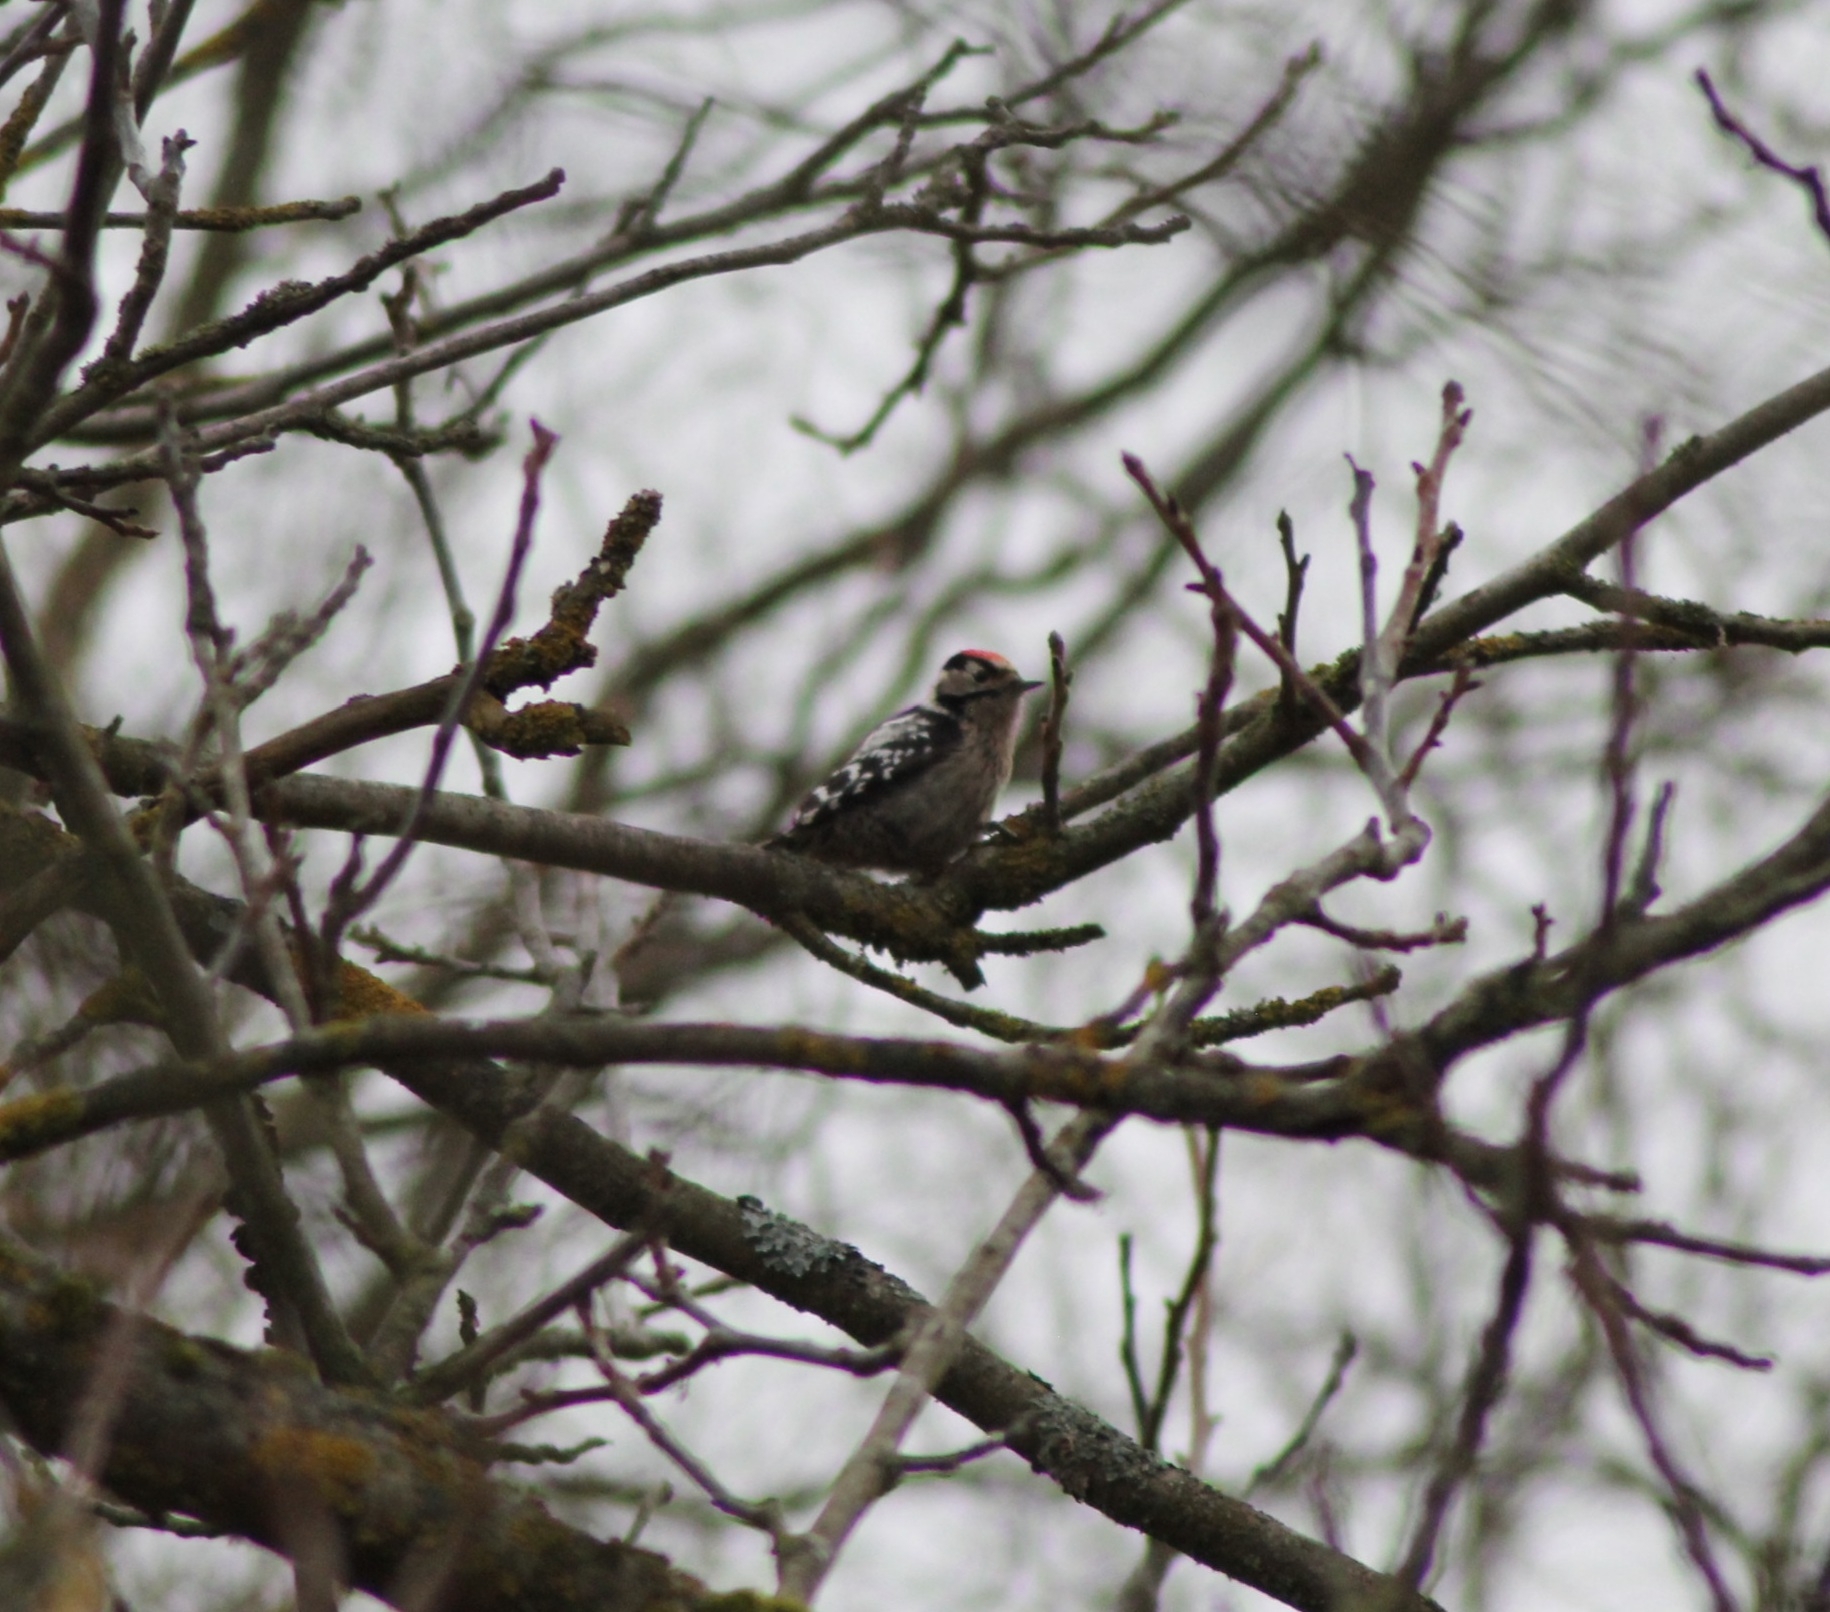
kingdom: Animalia
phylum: Chordata
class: Aves
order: Piciformes
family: Picidae
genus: Dryobates
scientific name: Dryobates minor
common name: Lesser spotted woodpecker
